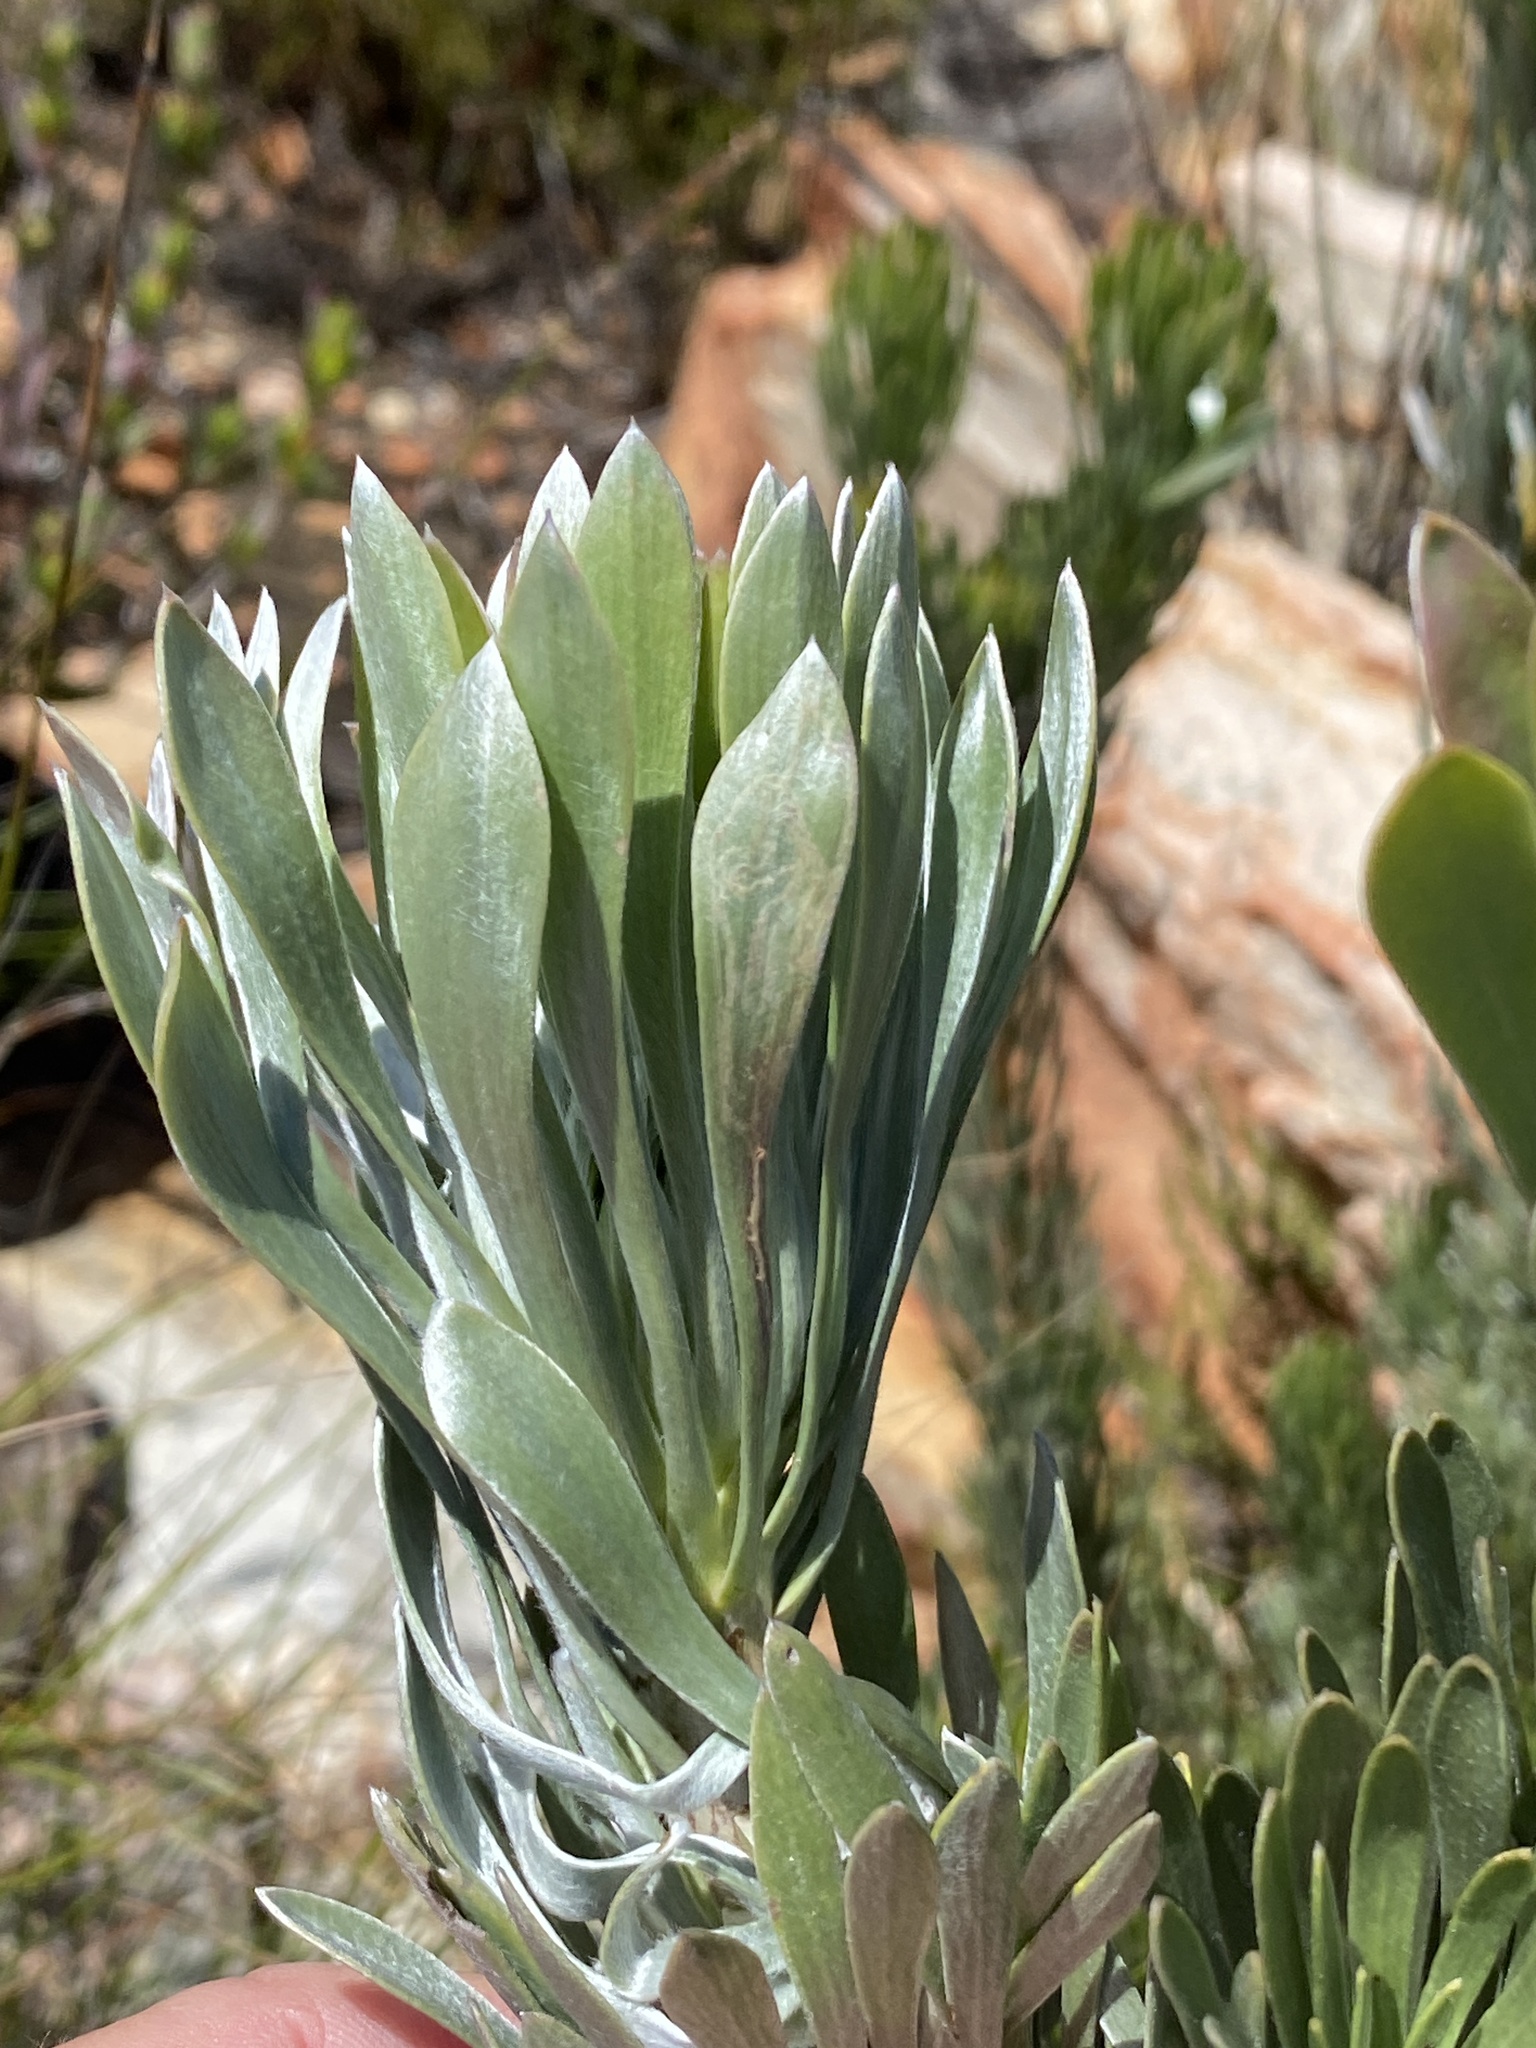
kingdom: Plantae
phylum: Tracheophyta
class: Magnoliopsida
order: Proteales
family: Proteaceae
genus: Leucadendron
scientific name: Leucadendron album
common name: Linear-leaf conebush
